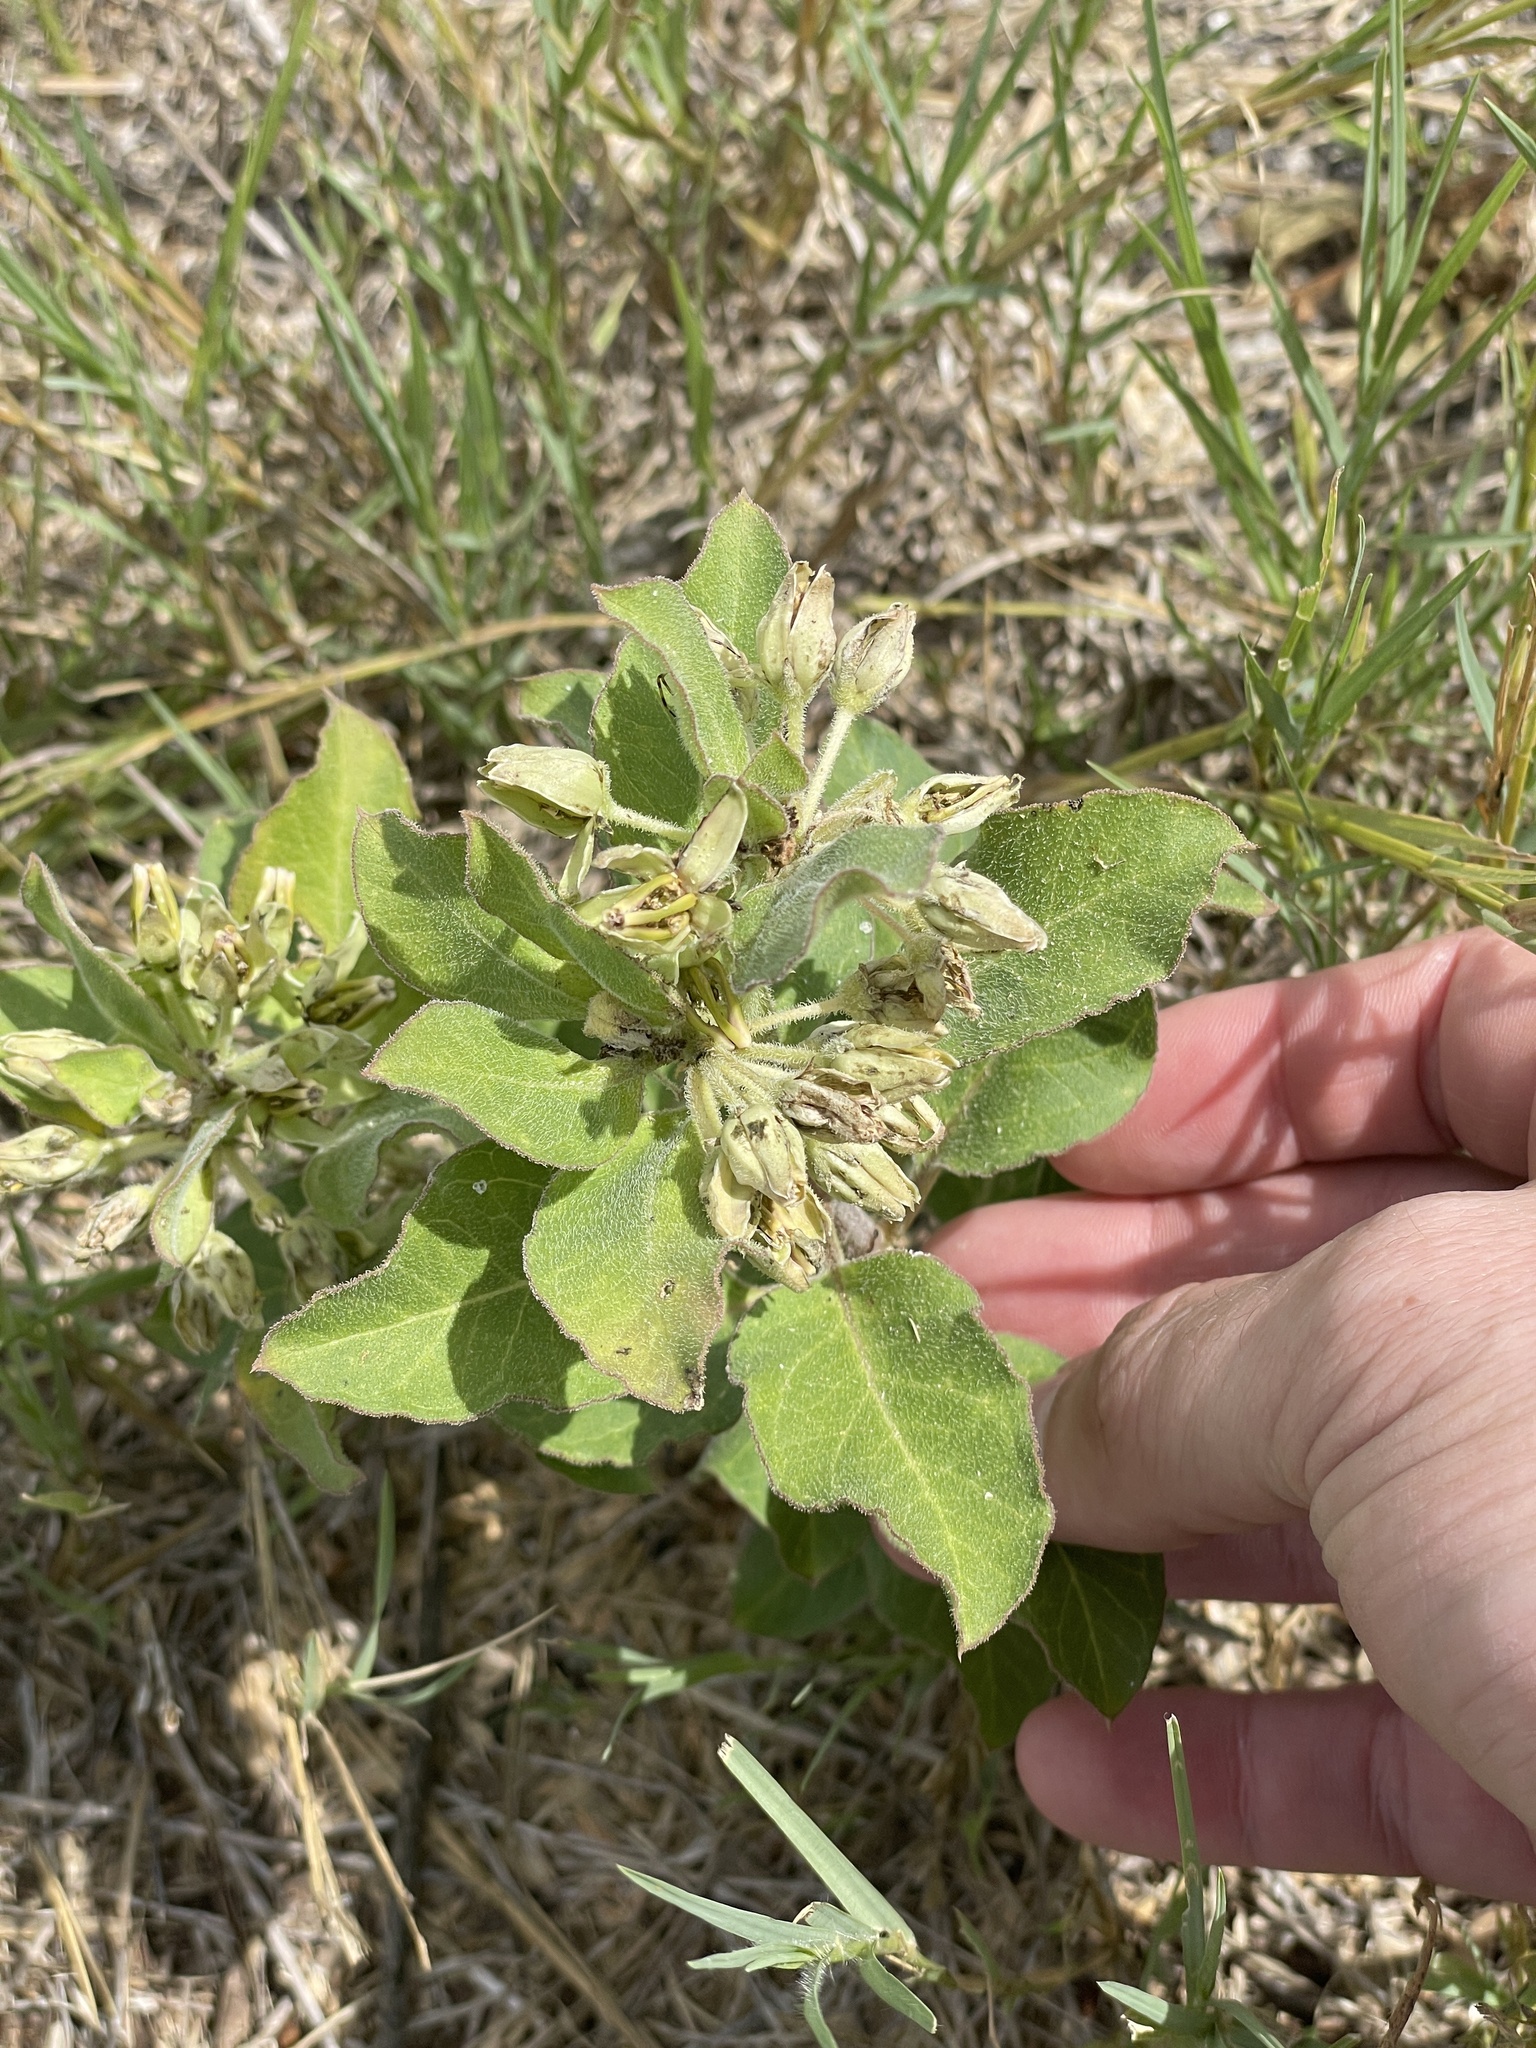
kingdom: Plantae
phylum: Tracheophyta
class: Magnoliopsida
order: Gentianales
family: Apocynaceae
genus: Asclepias
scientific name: Asclepias oenotheroides
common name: Zizotes milkweed
